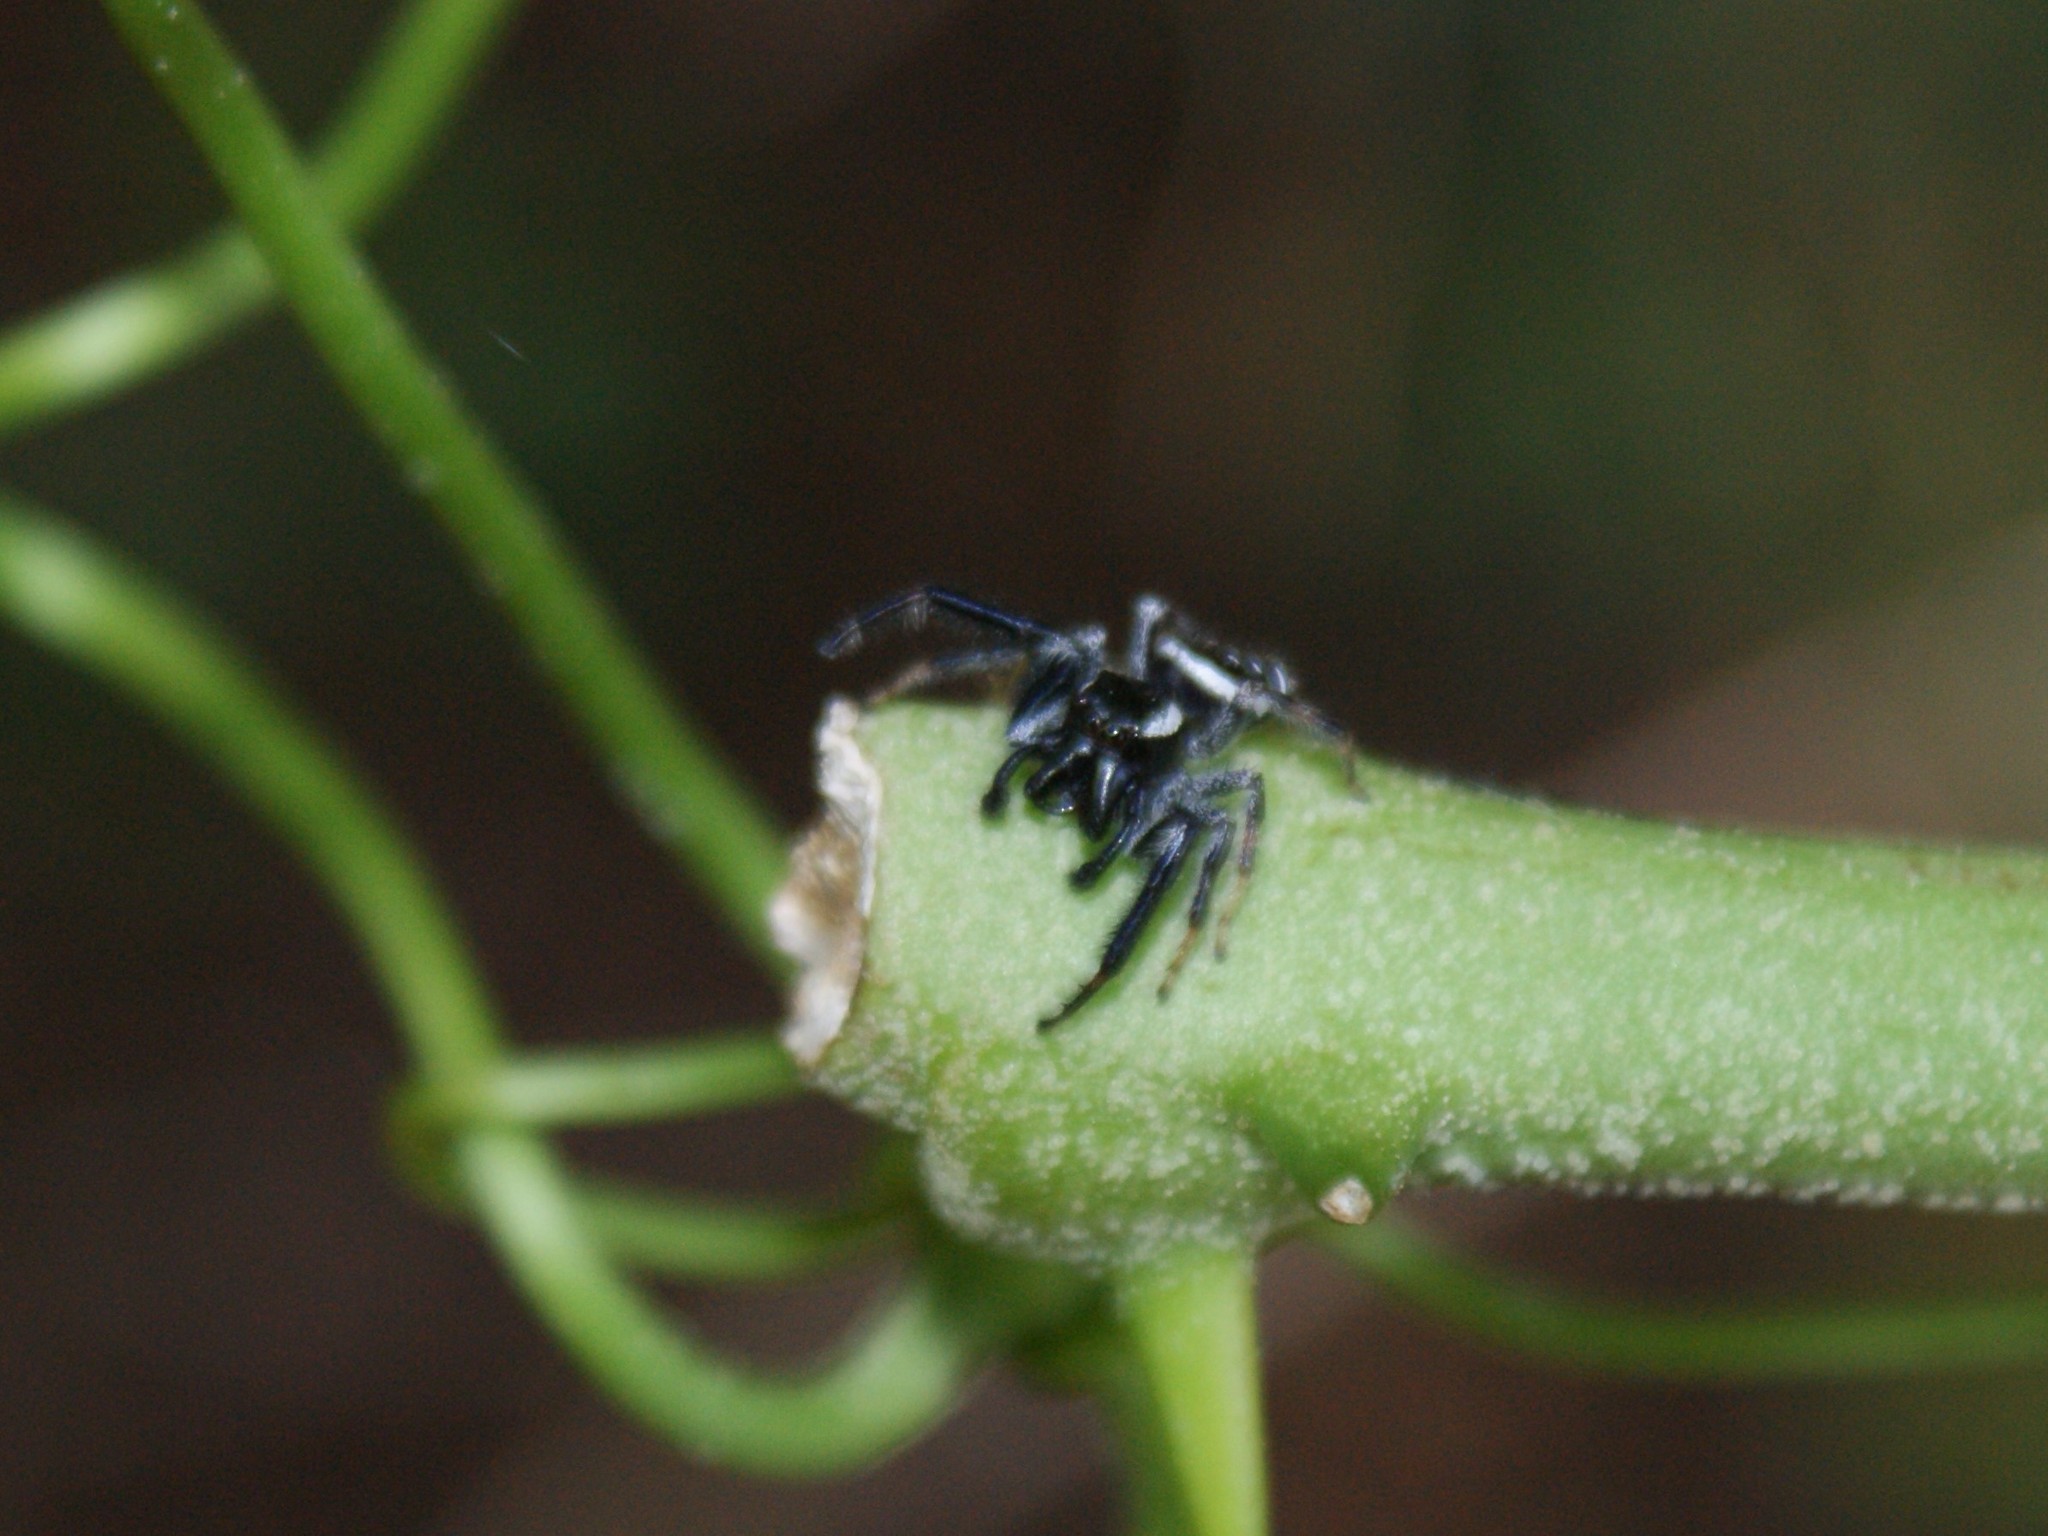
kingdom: Animalia
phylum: Arthropoda
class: Arachnida
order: Araneae
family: Salticidae
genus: Paraphidippus
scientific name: Paraphidippus aurantius
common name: Jumping spiders
